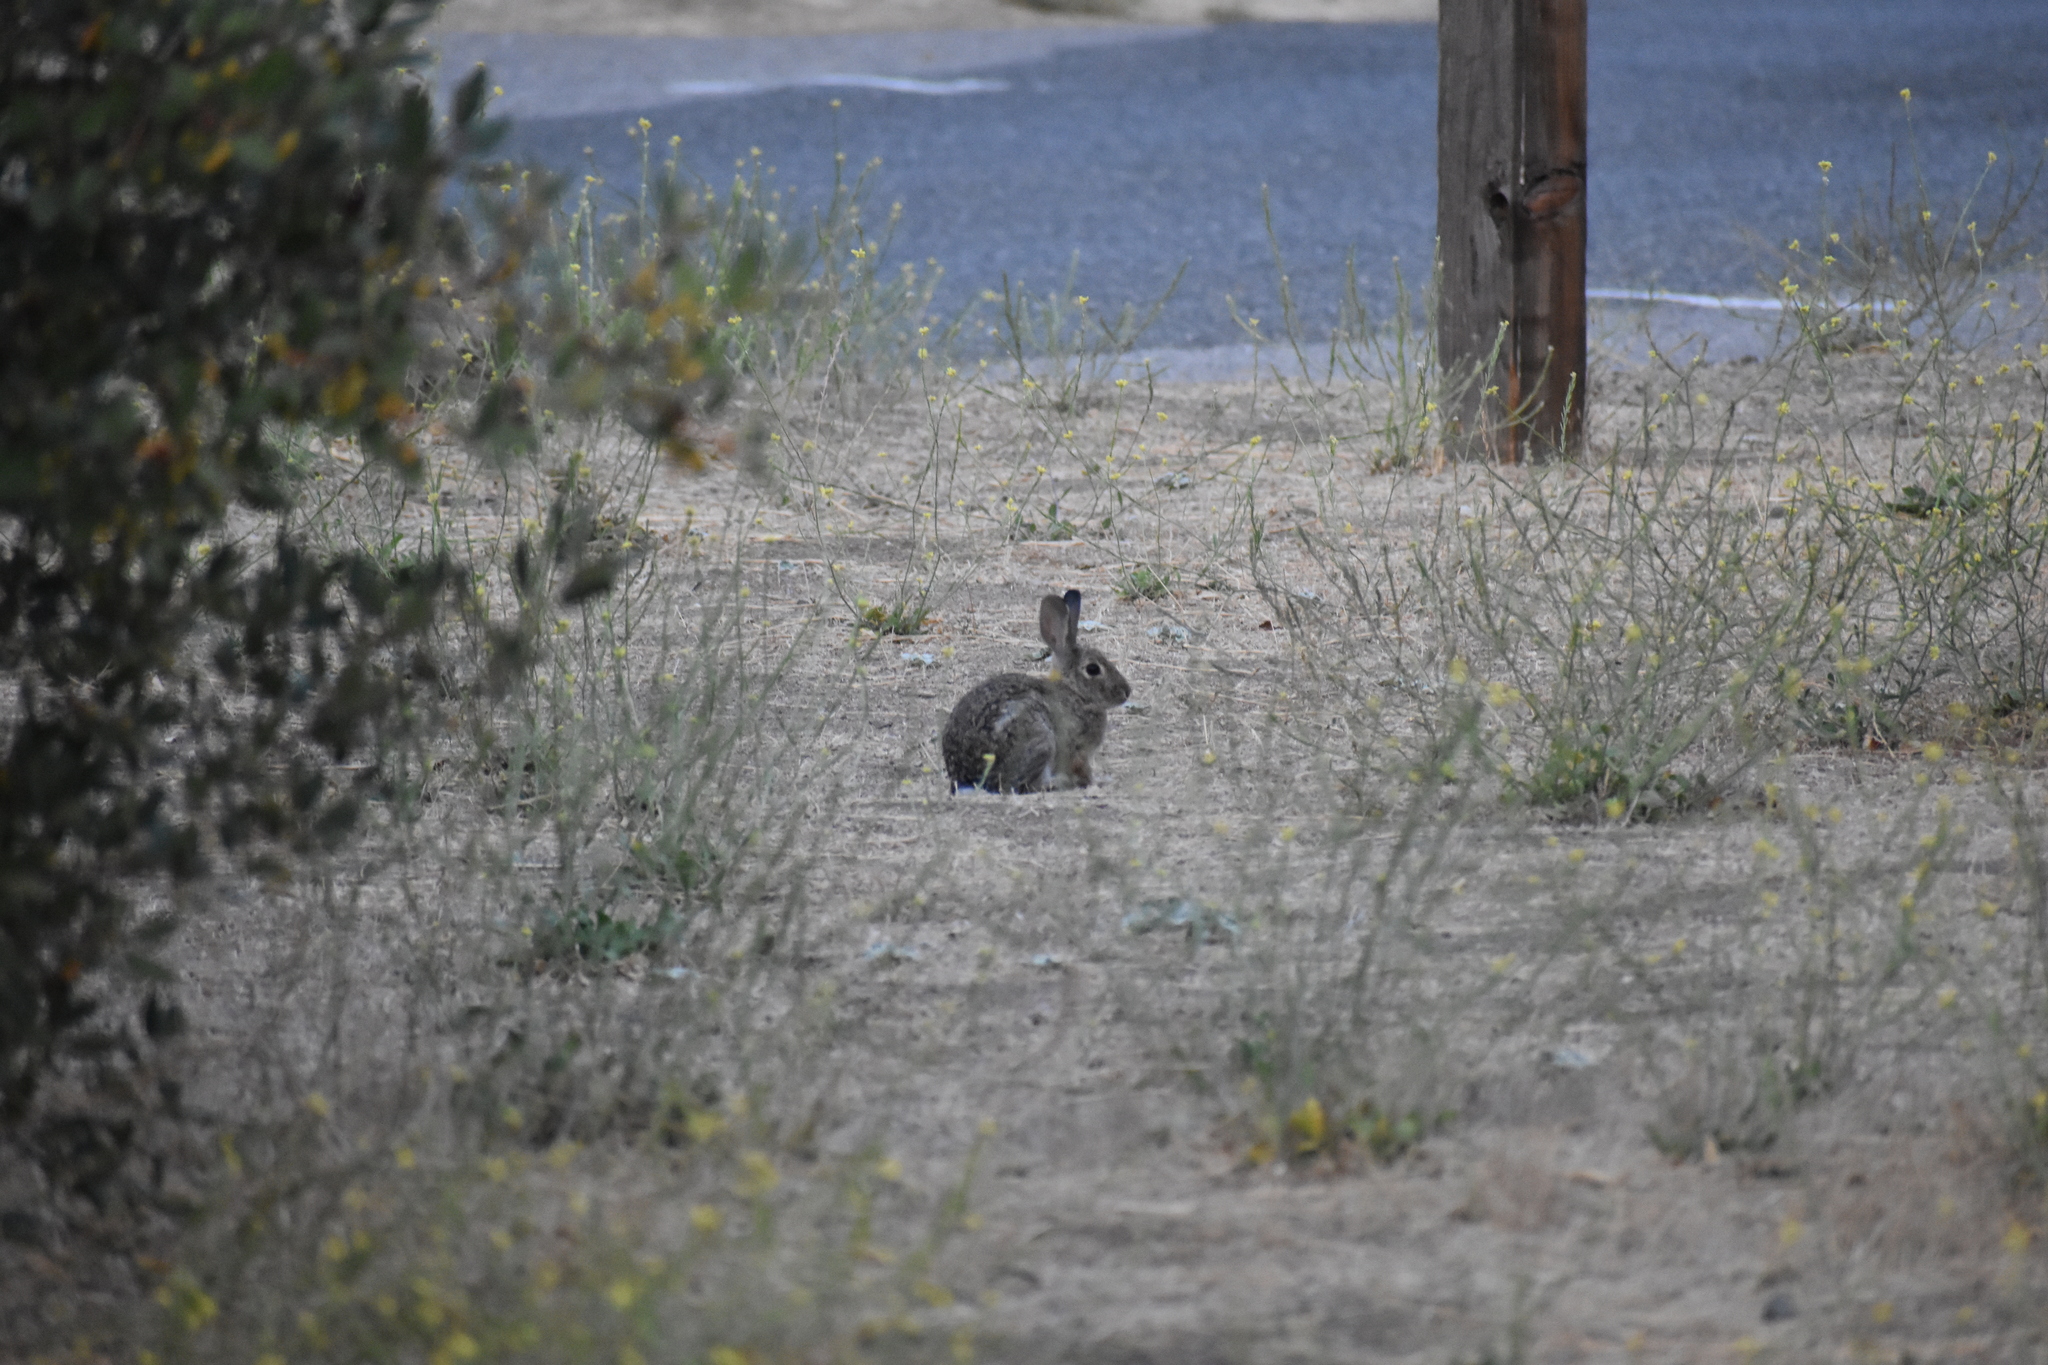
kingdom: Animalia
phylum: Chordata
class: Mammalia
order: Lagomorpha
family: Leporidae
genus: Sylvilagus
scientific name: Sylvilagus audubonii
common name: Desert cottontail
